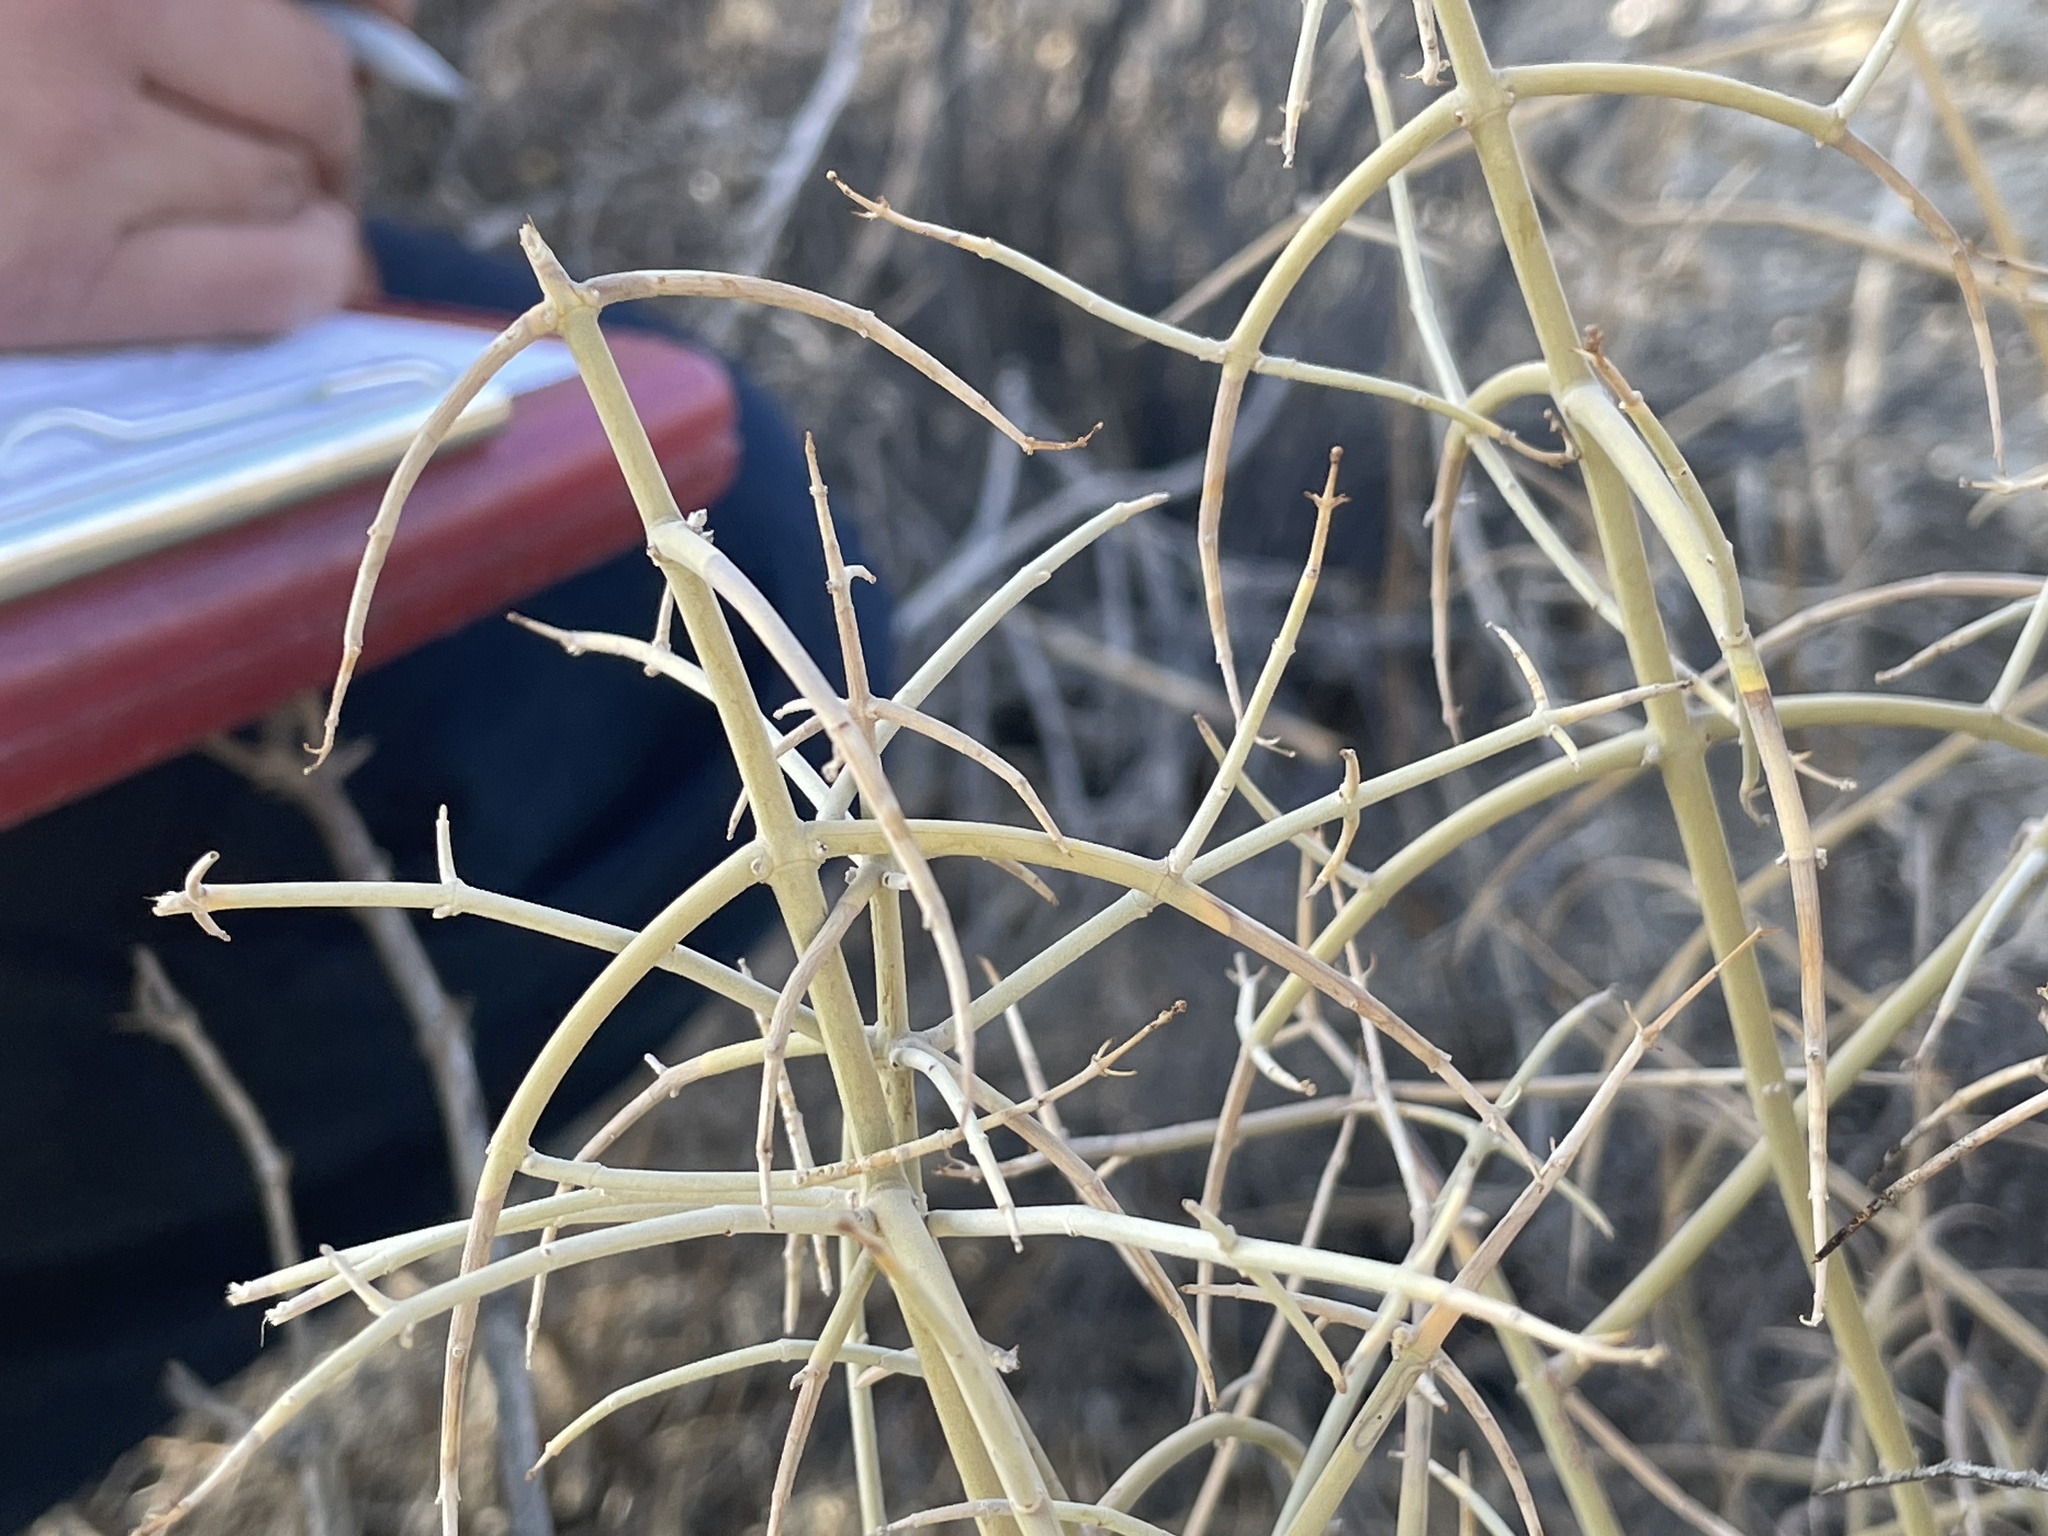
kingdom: Plantae
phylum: Tracheophyta
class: Magnoliopsida
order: Lamiales
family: Lamiaceae
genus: Scutellaria
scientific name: Scutellaria mexicana
